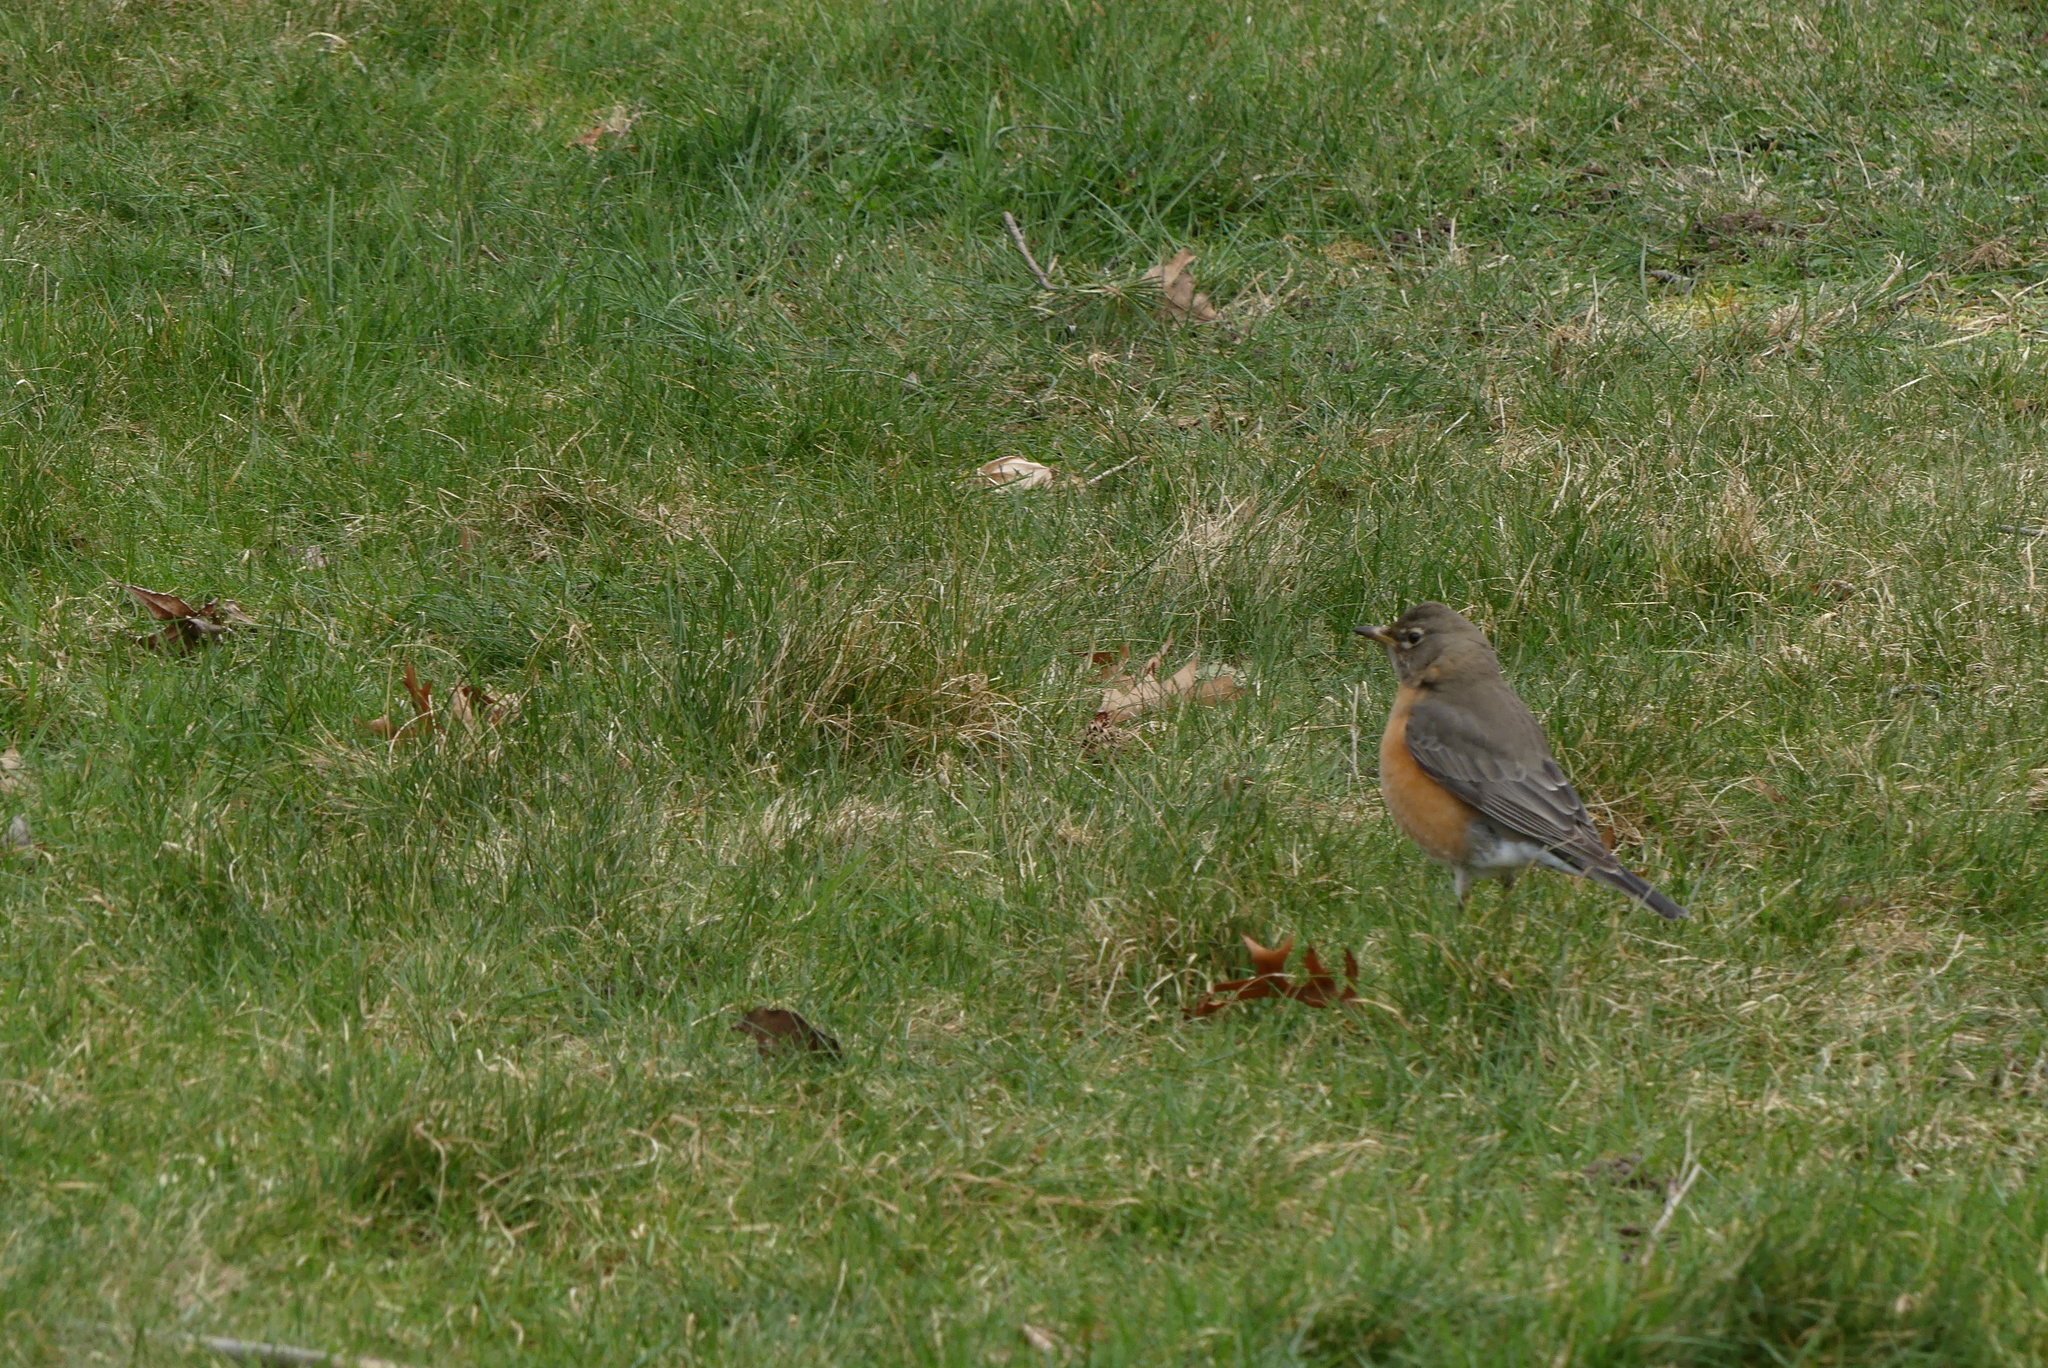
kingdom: Animalia
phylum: Chordata
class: Aves
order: Passeriformes
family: Turdidae
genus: Turdus
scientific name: Turdus migratorius
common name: American robin
